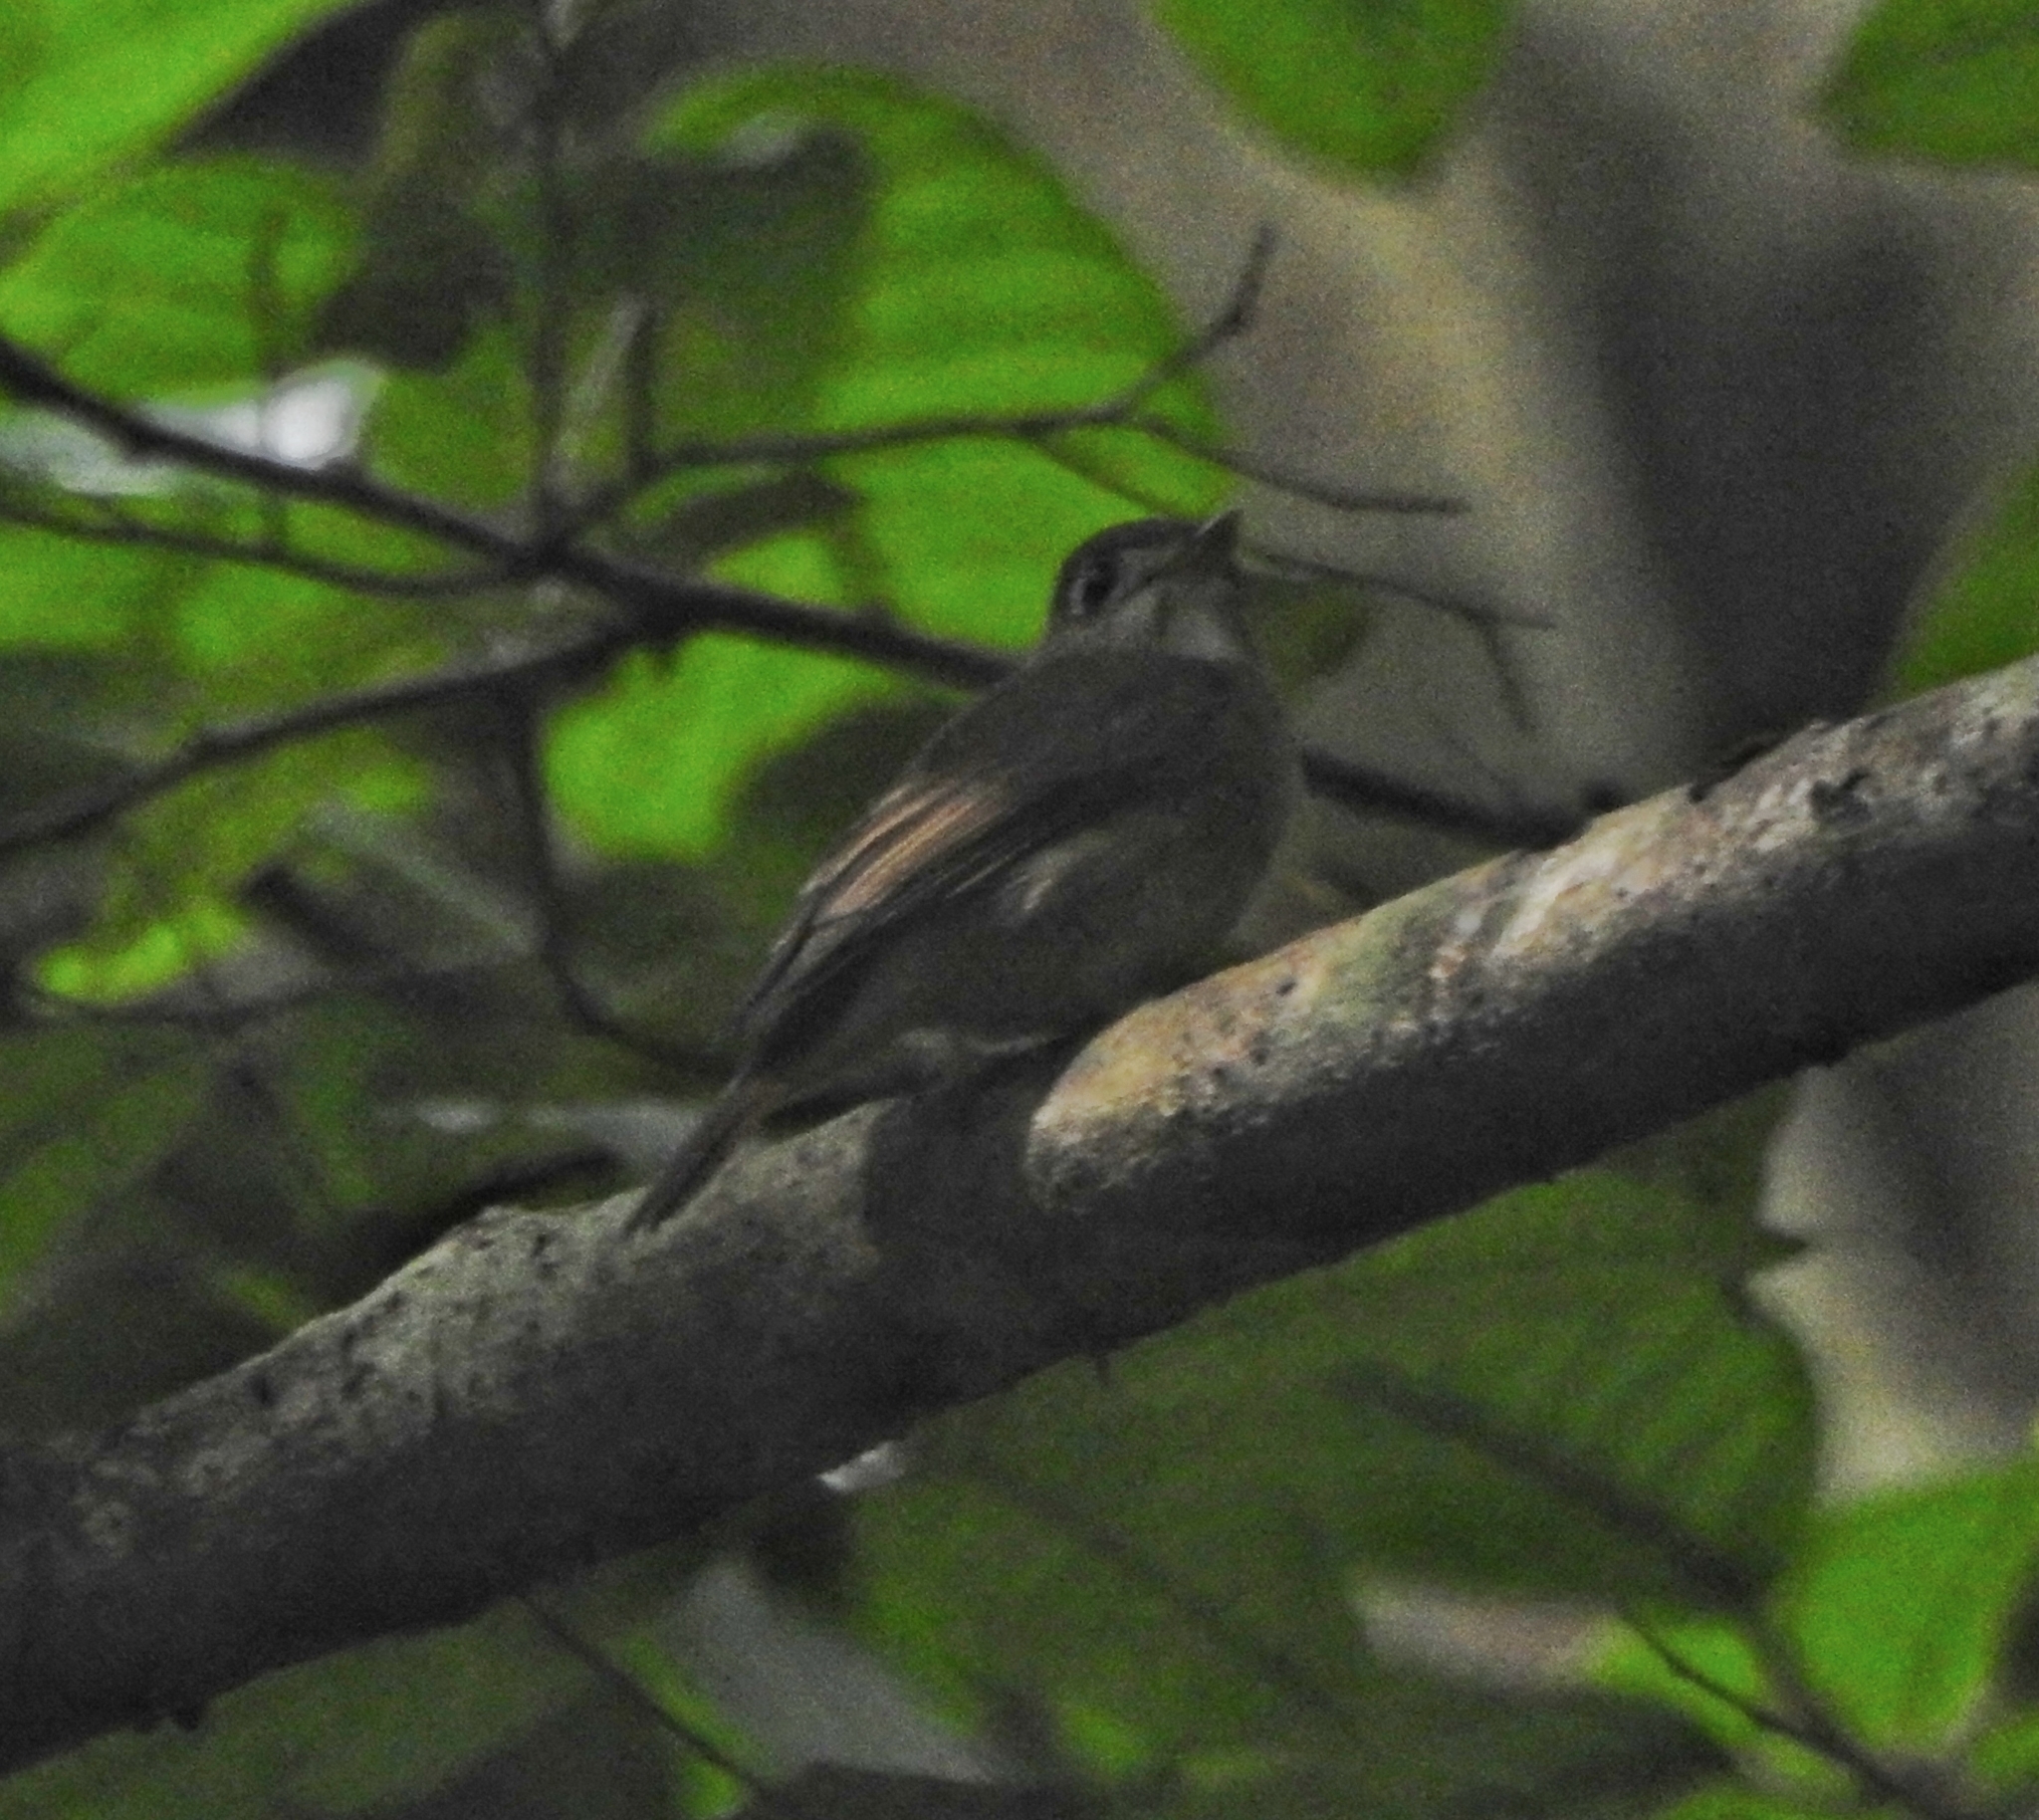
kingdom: Animalia
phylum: Chordata
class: Aves
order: Passeriformes
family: Muscicapidae
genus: Muscicapa
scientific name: Muscicapa muttui
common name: Brown-breasted flycatcher
